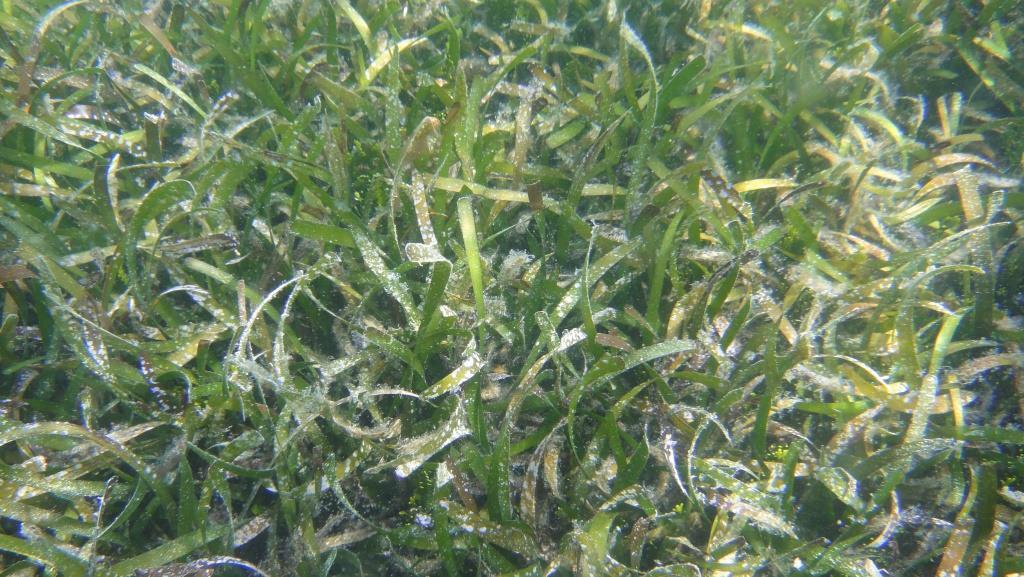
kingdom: Plantae
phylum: Tracheophyta
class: Liliopsida
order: Alismatales
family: Hydrocharitaceae
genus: Thalassia
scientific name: Thalassia testudinum
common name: Species code: tt
